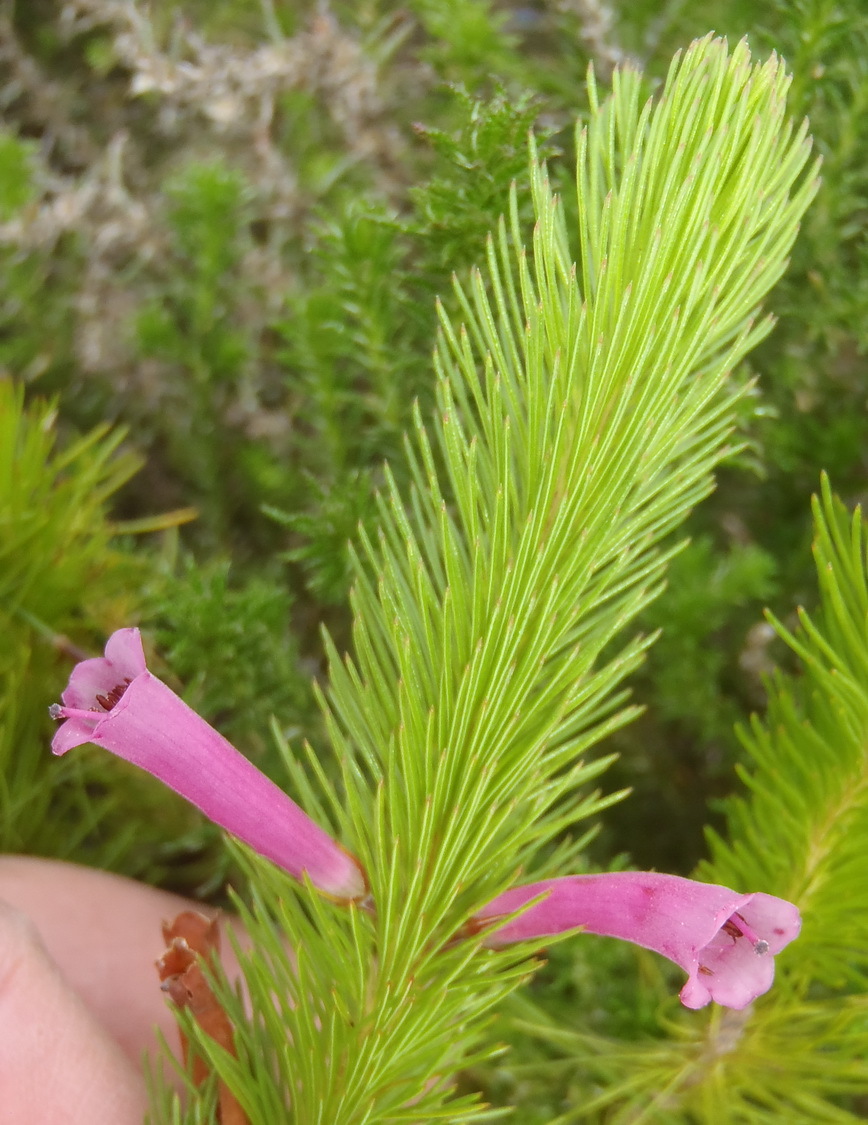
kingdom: Plantae
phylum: Tracheophyta
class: Magnoliopsida
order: Ericales
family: Ericaceae
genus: Erica
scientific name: Erica vestita
